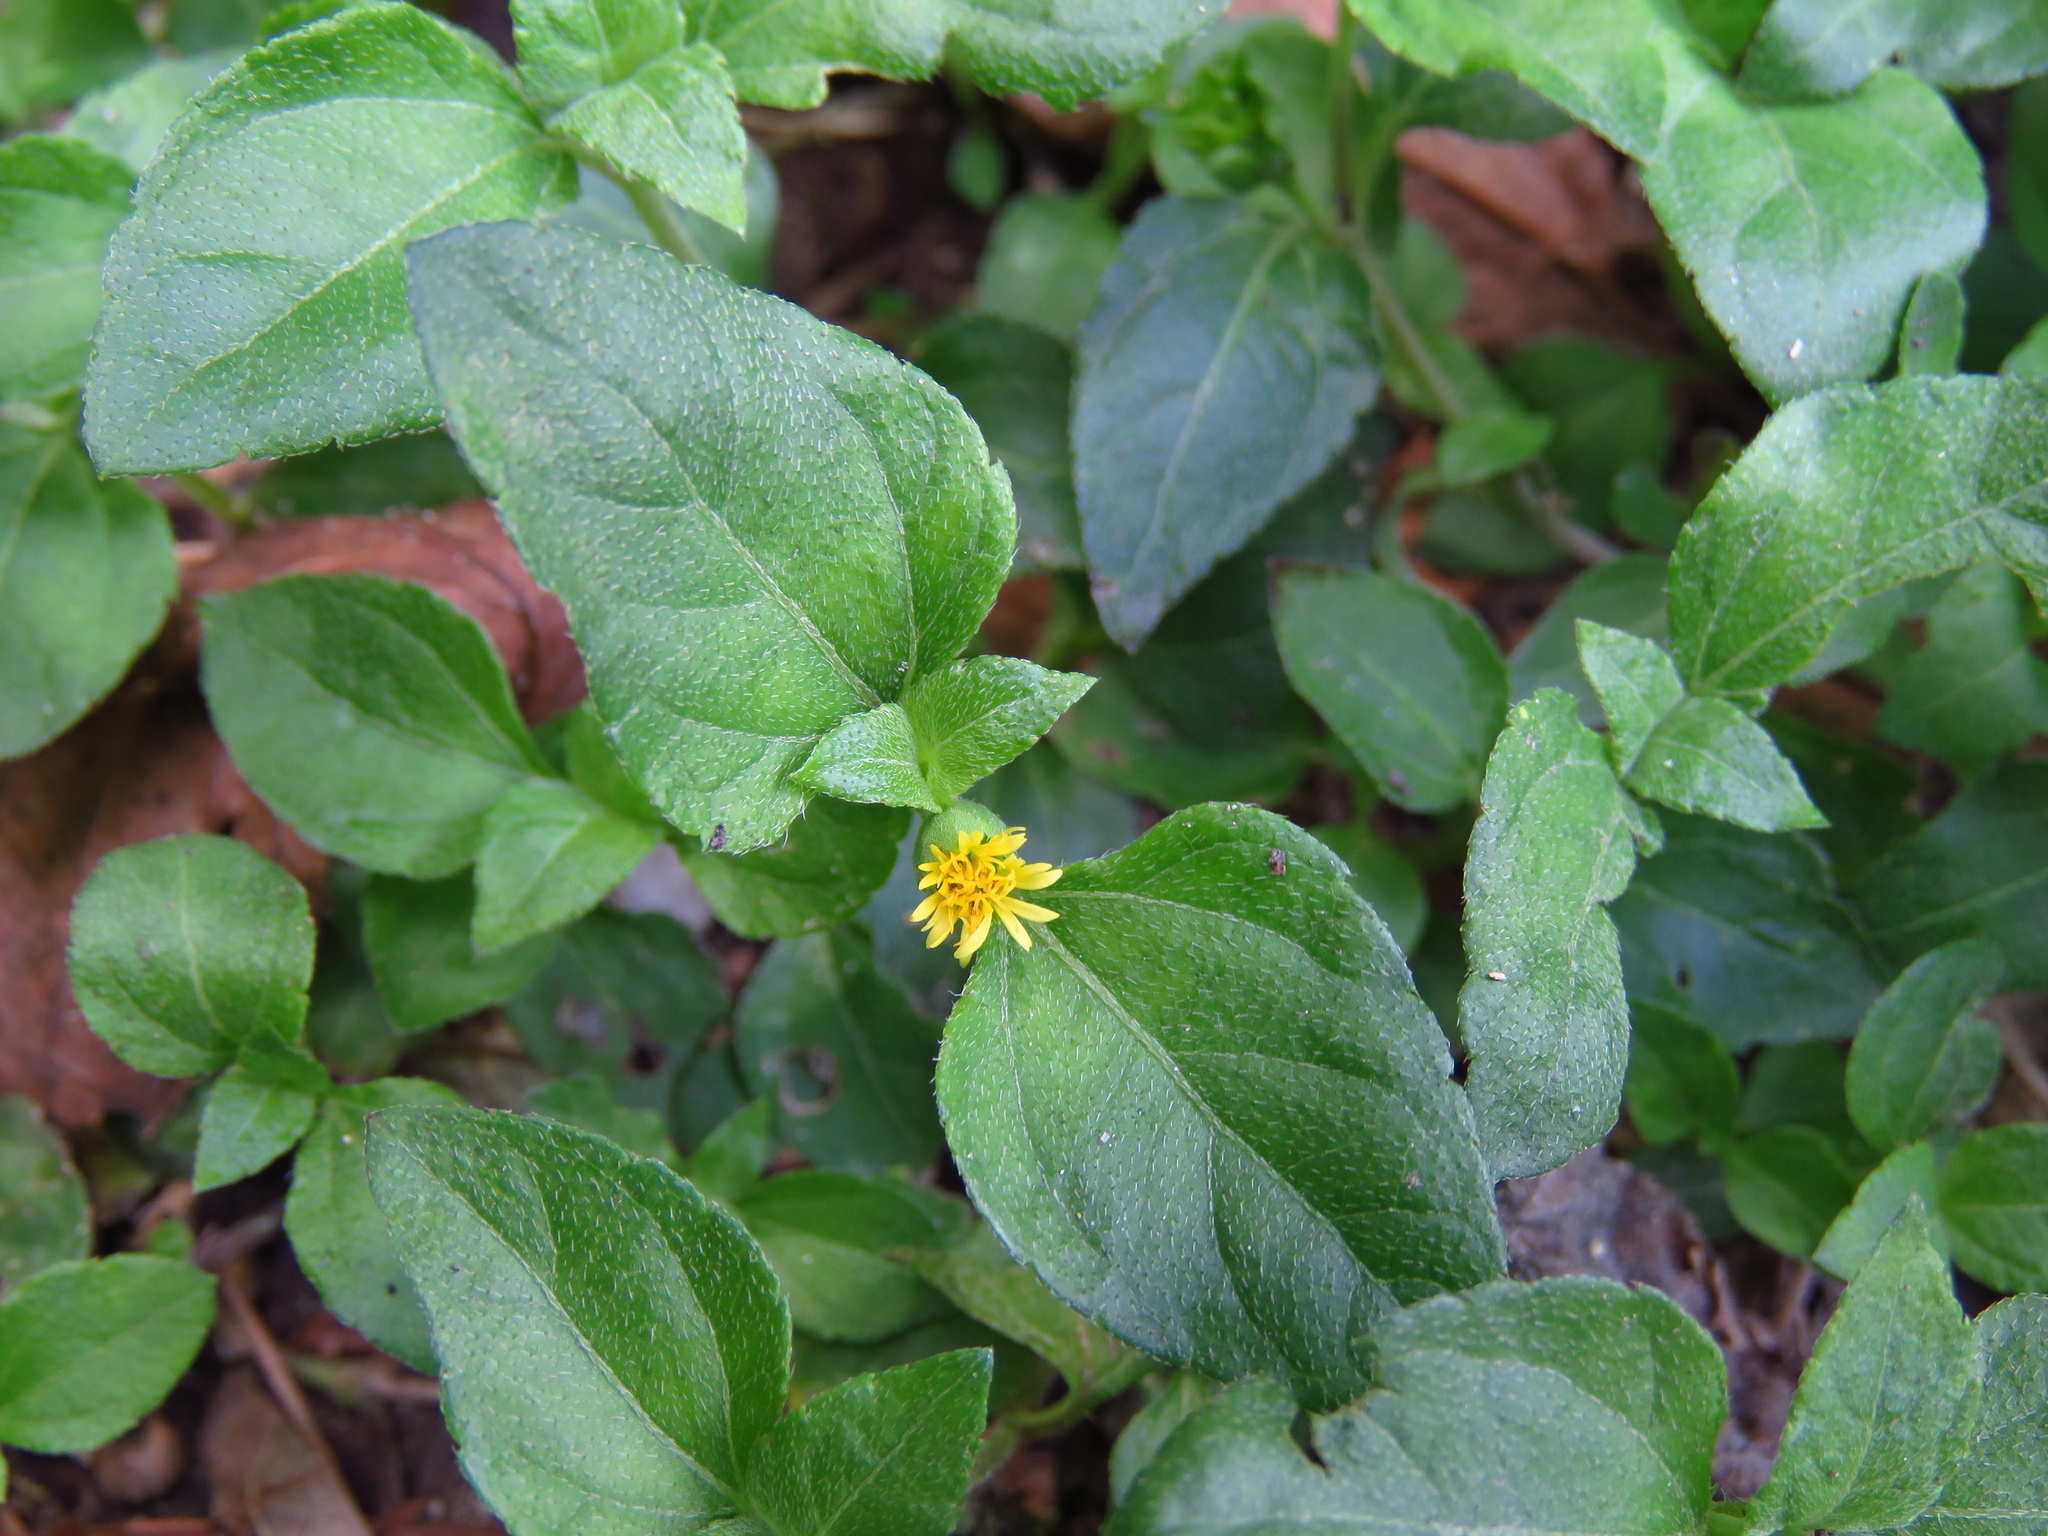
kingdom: Plantae
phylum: Tracheophyta
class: Magnoliopsida
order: Asterales
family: Asteraceae
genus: Calyptocarpus
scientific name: Calyptocarpus vialis
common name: Straggler daisy
